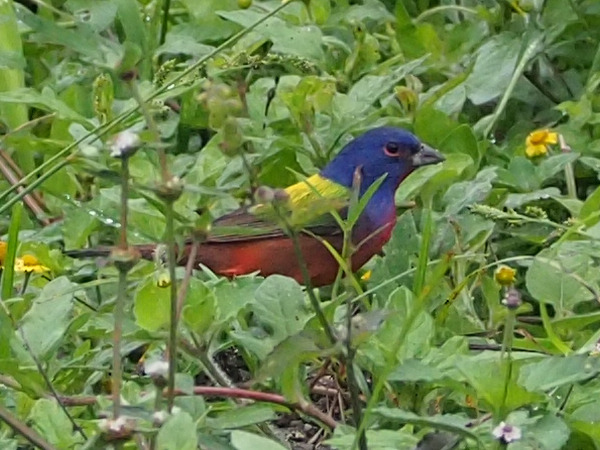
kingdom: Animalia
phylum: Chordata
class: Aves
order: Passeriformes
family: Cardinalidae
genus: Passerina
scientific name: Passerina ciris
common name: Painted bunting
